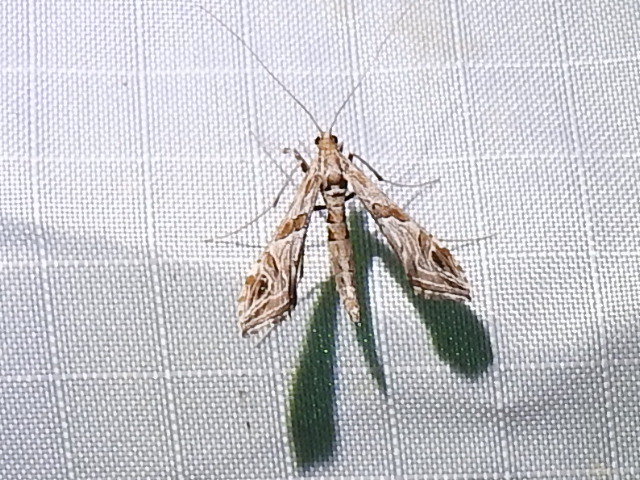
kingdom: Animalia
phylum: Arthropoda
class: Insecta
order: Lepidoptera
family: Crambidae
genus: Lineodes
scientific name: Lineodes interrupta
